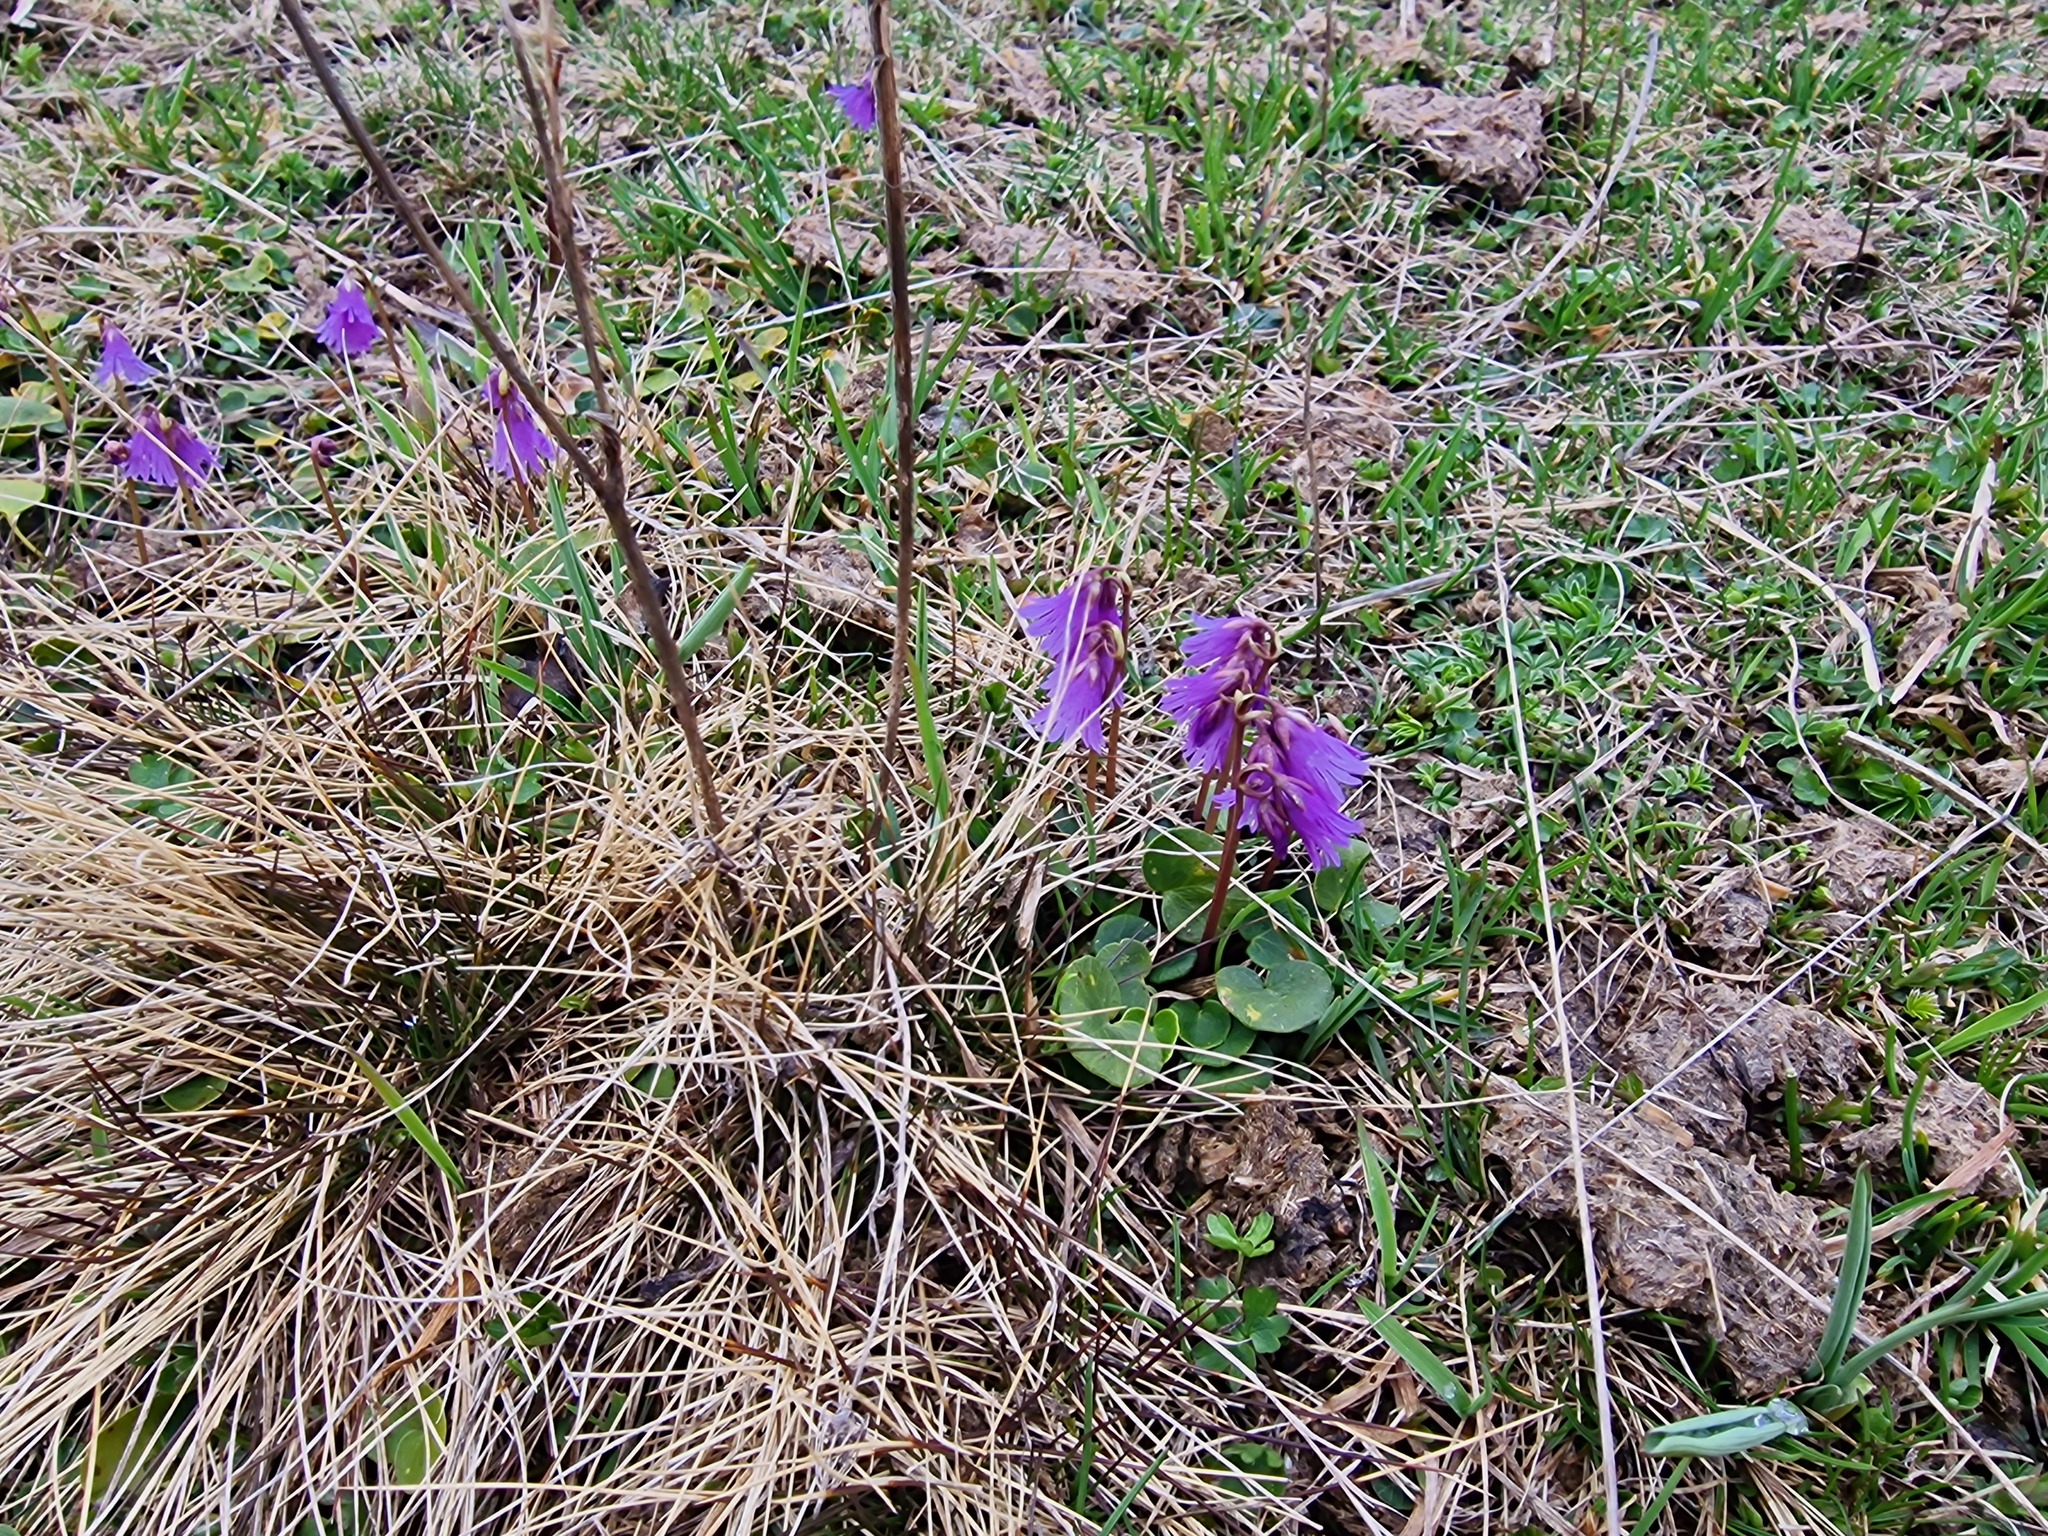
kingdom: Plantae
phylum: Tracheophyta
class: Magnoliopsida
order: Ericales
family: Primulaceae
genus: Soldanella
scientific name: Soldanella alpina
